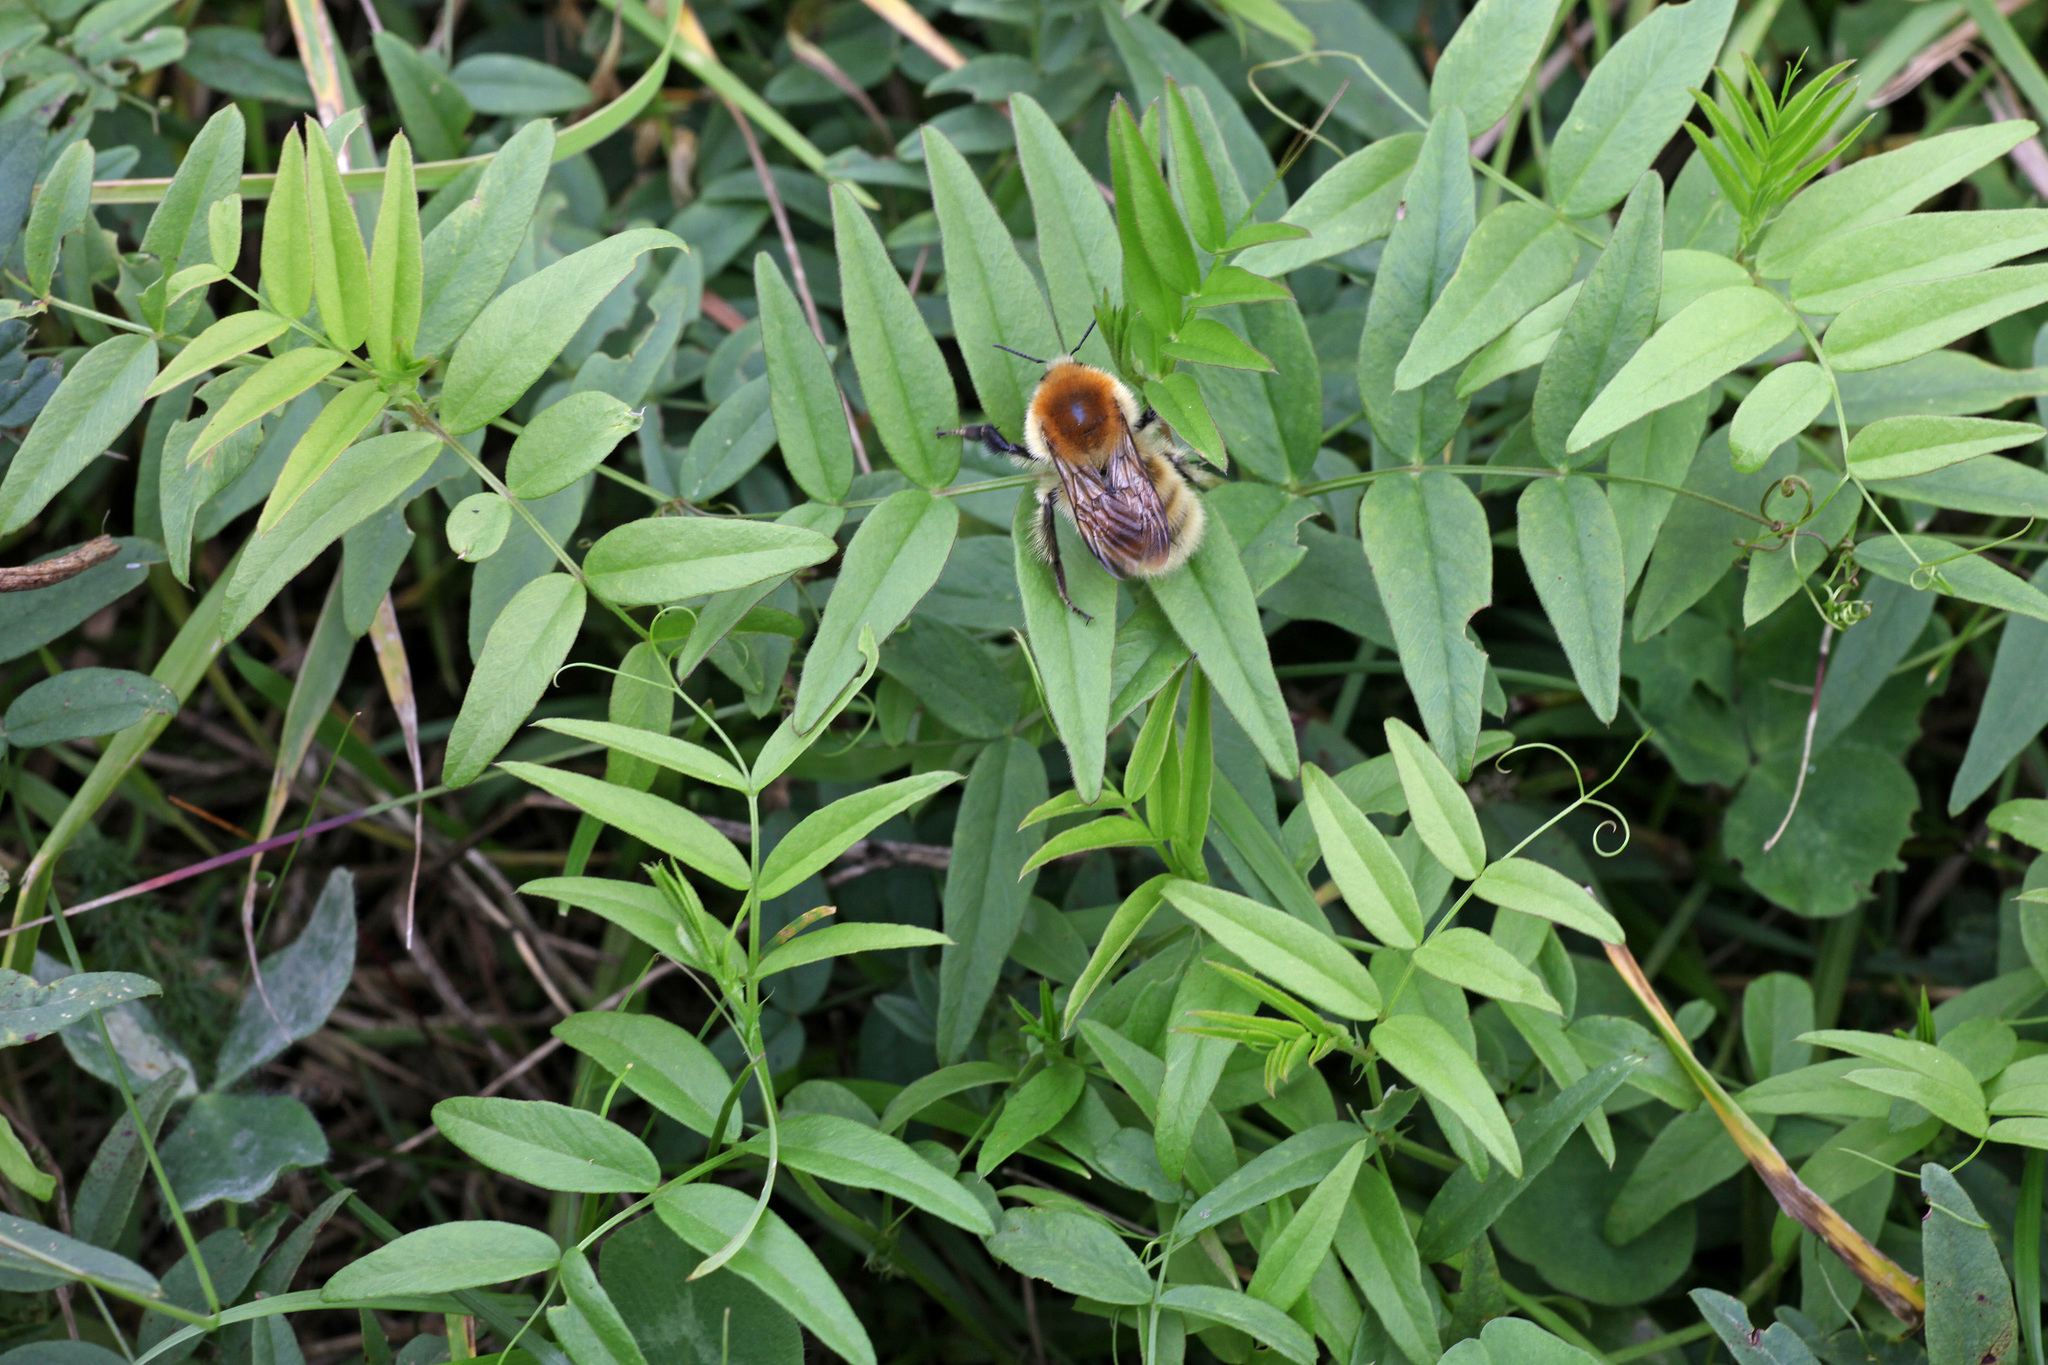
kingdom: Plantae
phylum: Tracheophyta
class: Magnoliopsida
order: Fabales
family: Fabaceae
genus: Vicia
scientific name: Vicia sepium
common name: Bush vetch
